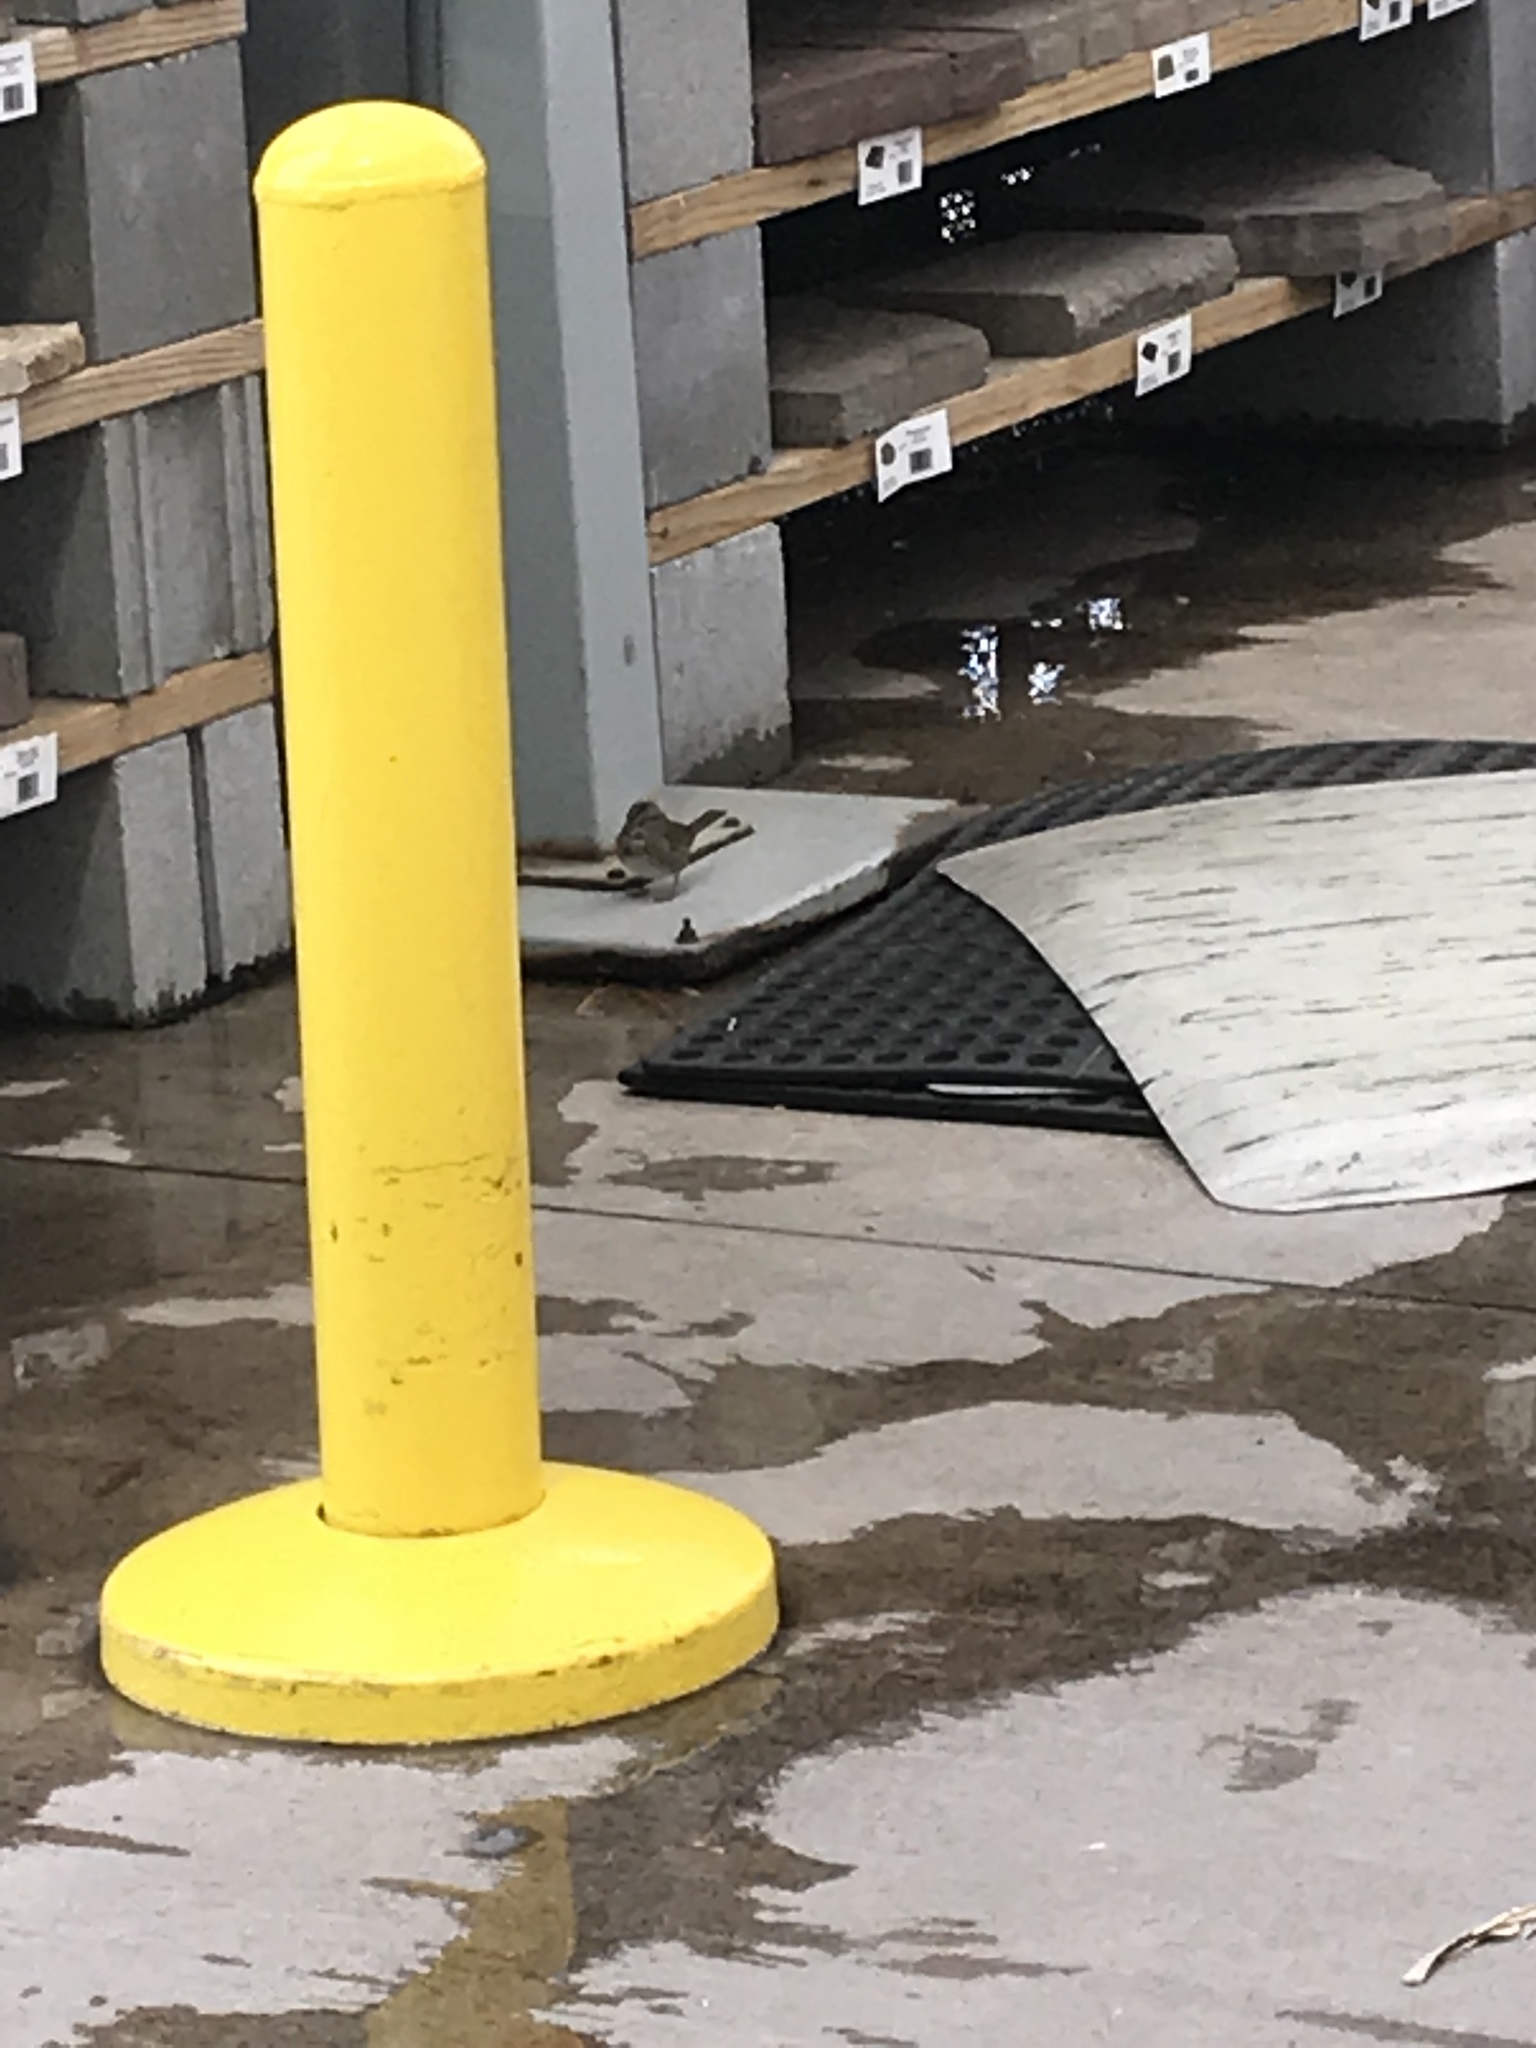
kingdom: Animalia
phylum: Chordata
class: Aves
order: Passeriformes
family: Passerellidae
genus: Melospiza
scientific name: Melospiza melodia
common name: Song sparrow
